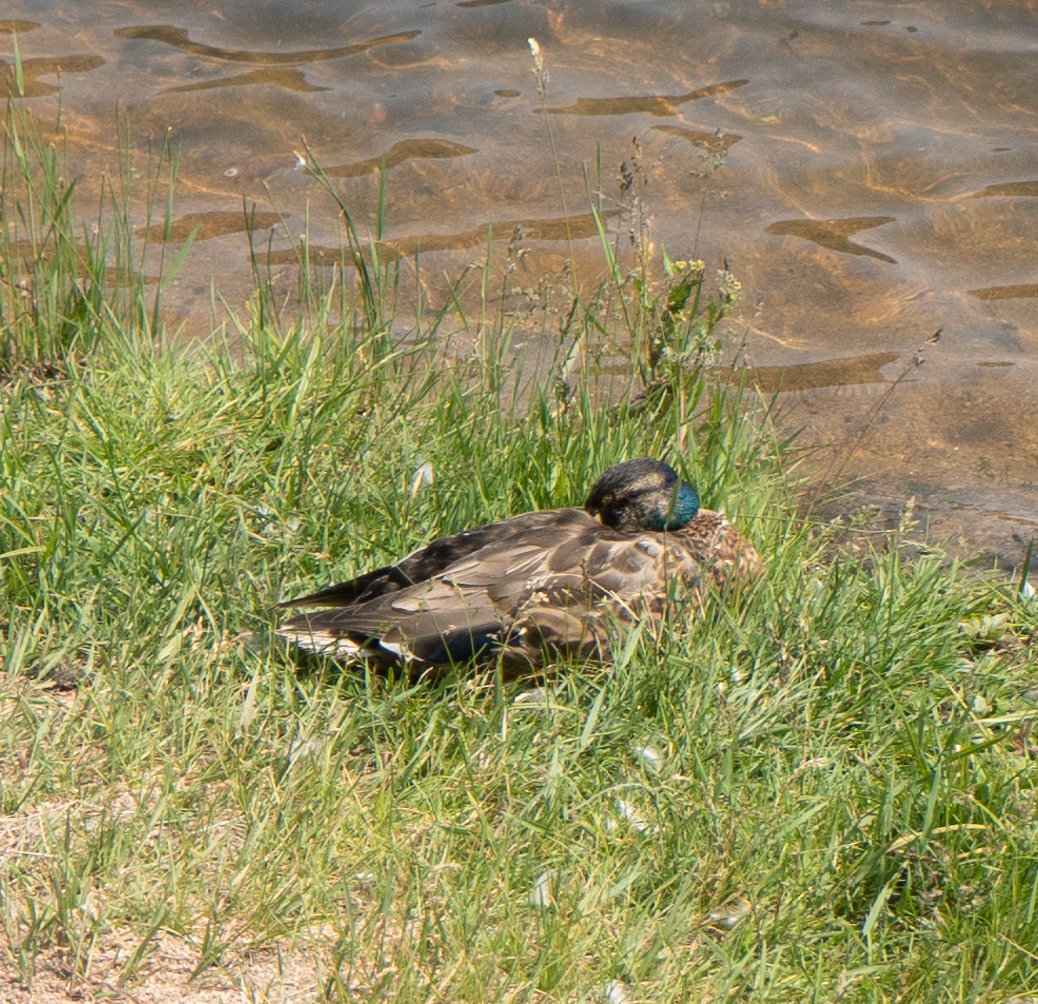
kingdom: Animalia
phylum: Chordata
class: Aves
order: Anseriformes
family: Anatidae
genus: Anas
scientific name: Anas platyrhynchos
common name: Mallard
